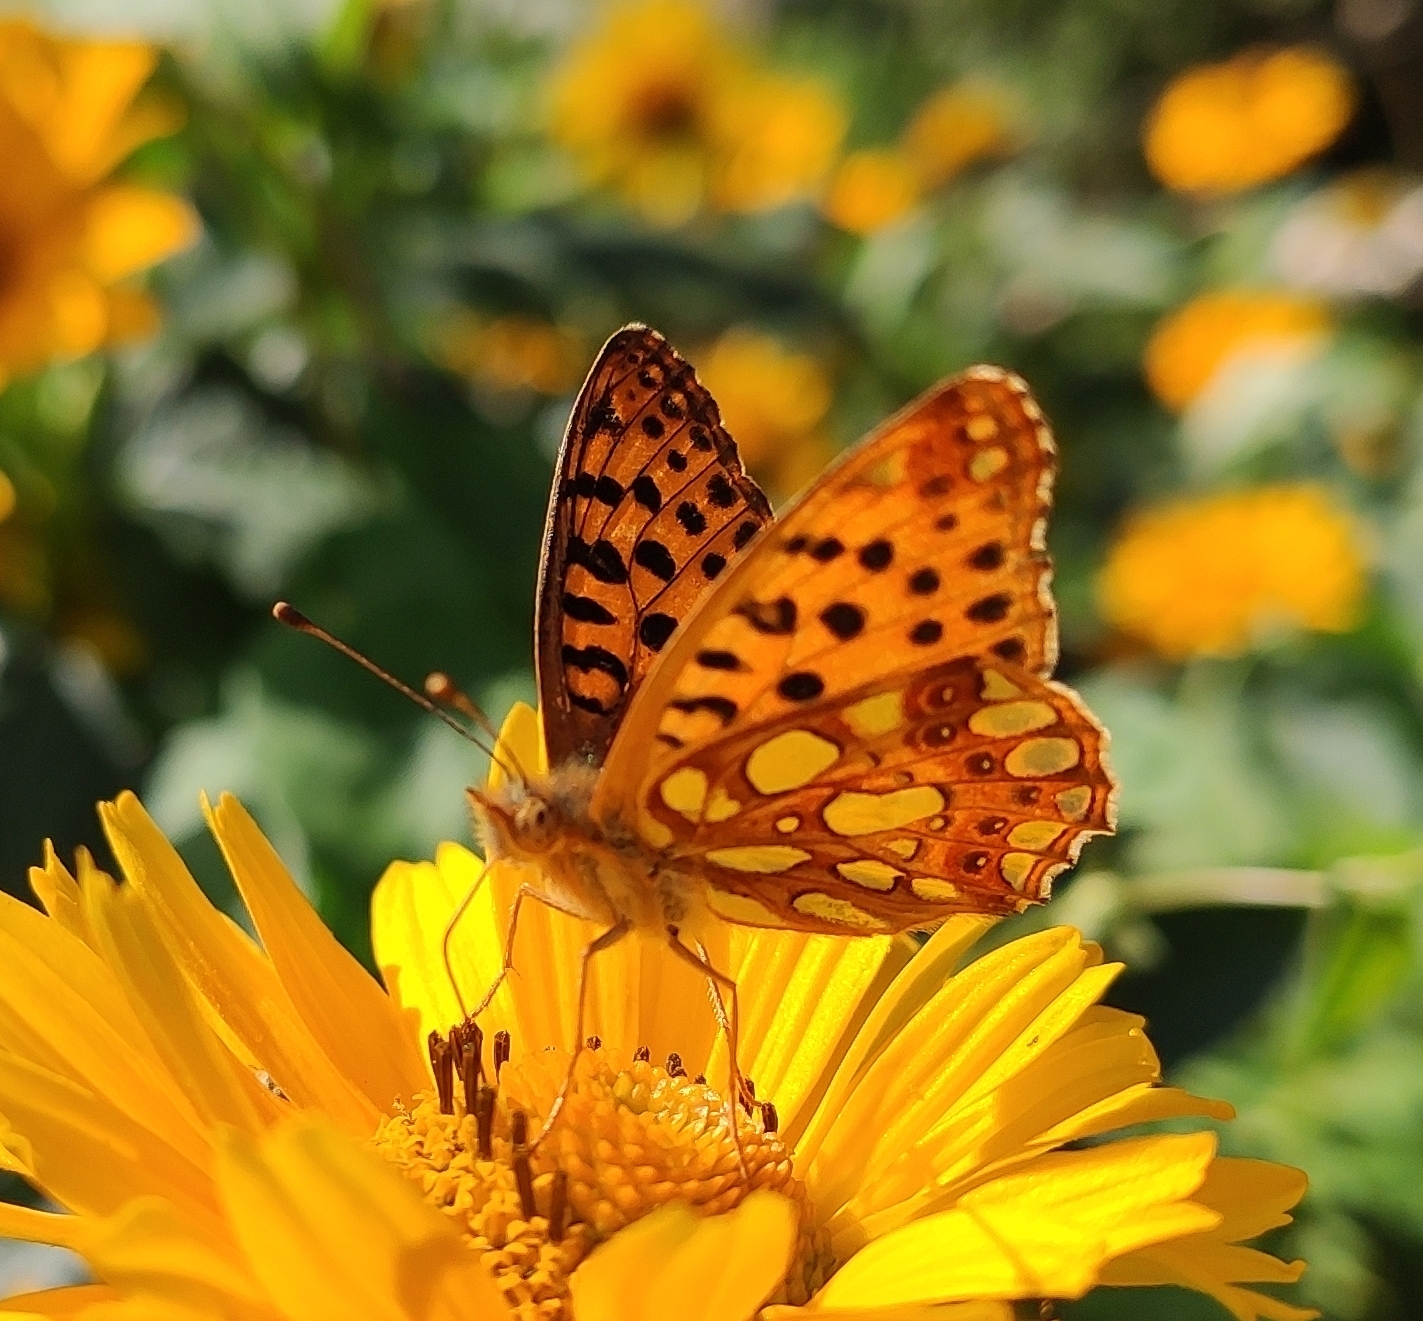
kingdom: Animalia
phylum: Arthropoda
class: Insecta
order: Lepidoptera
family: Nymphalidae
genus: Issoria
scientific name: Issoria lathonia
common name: Queen of spain fritillary
